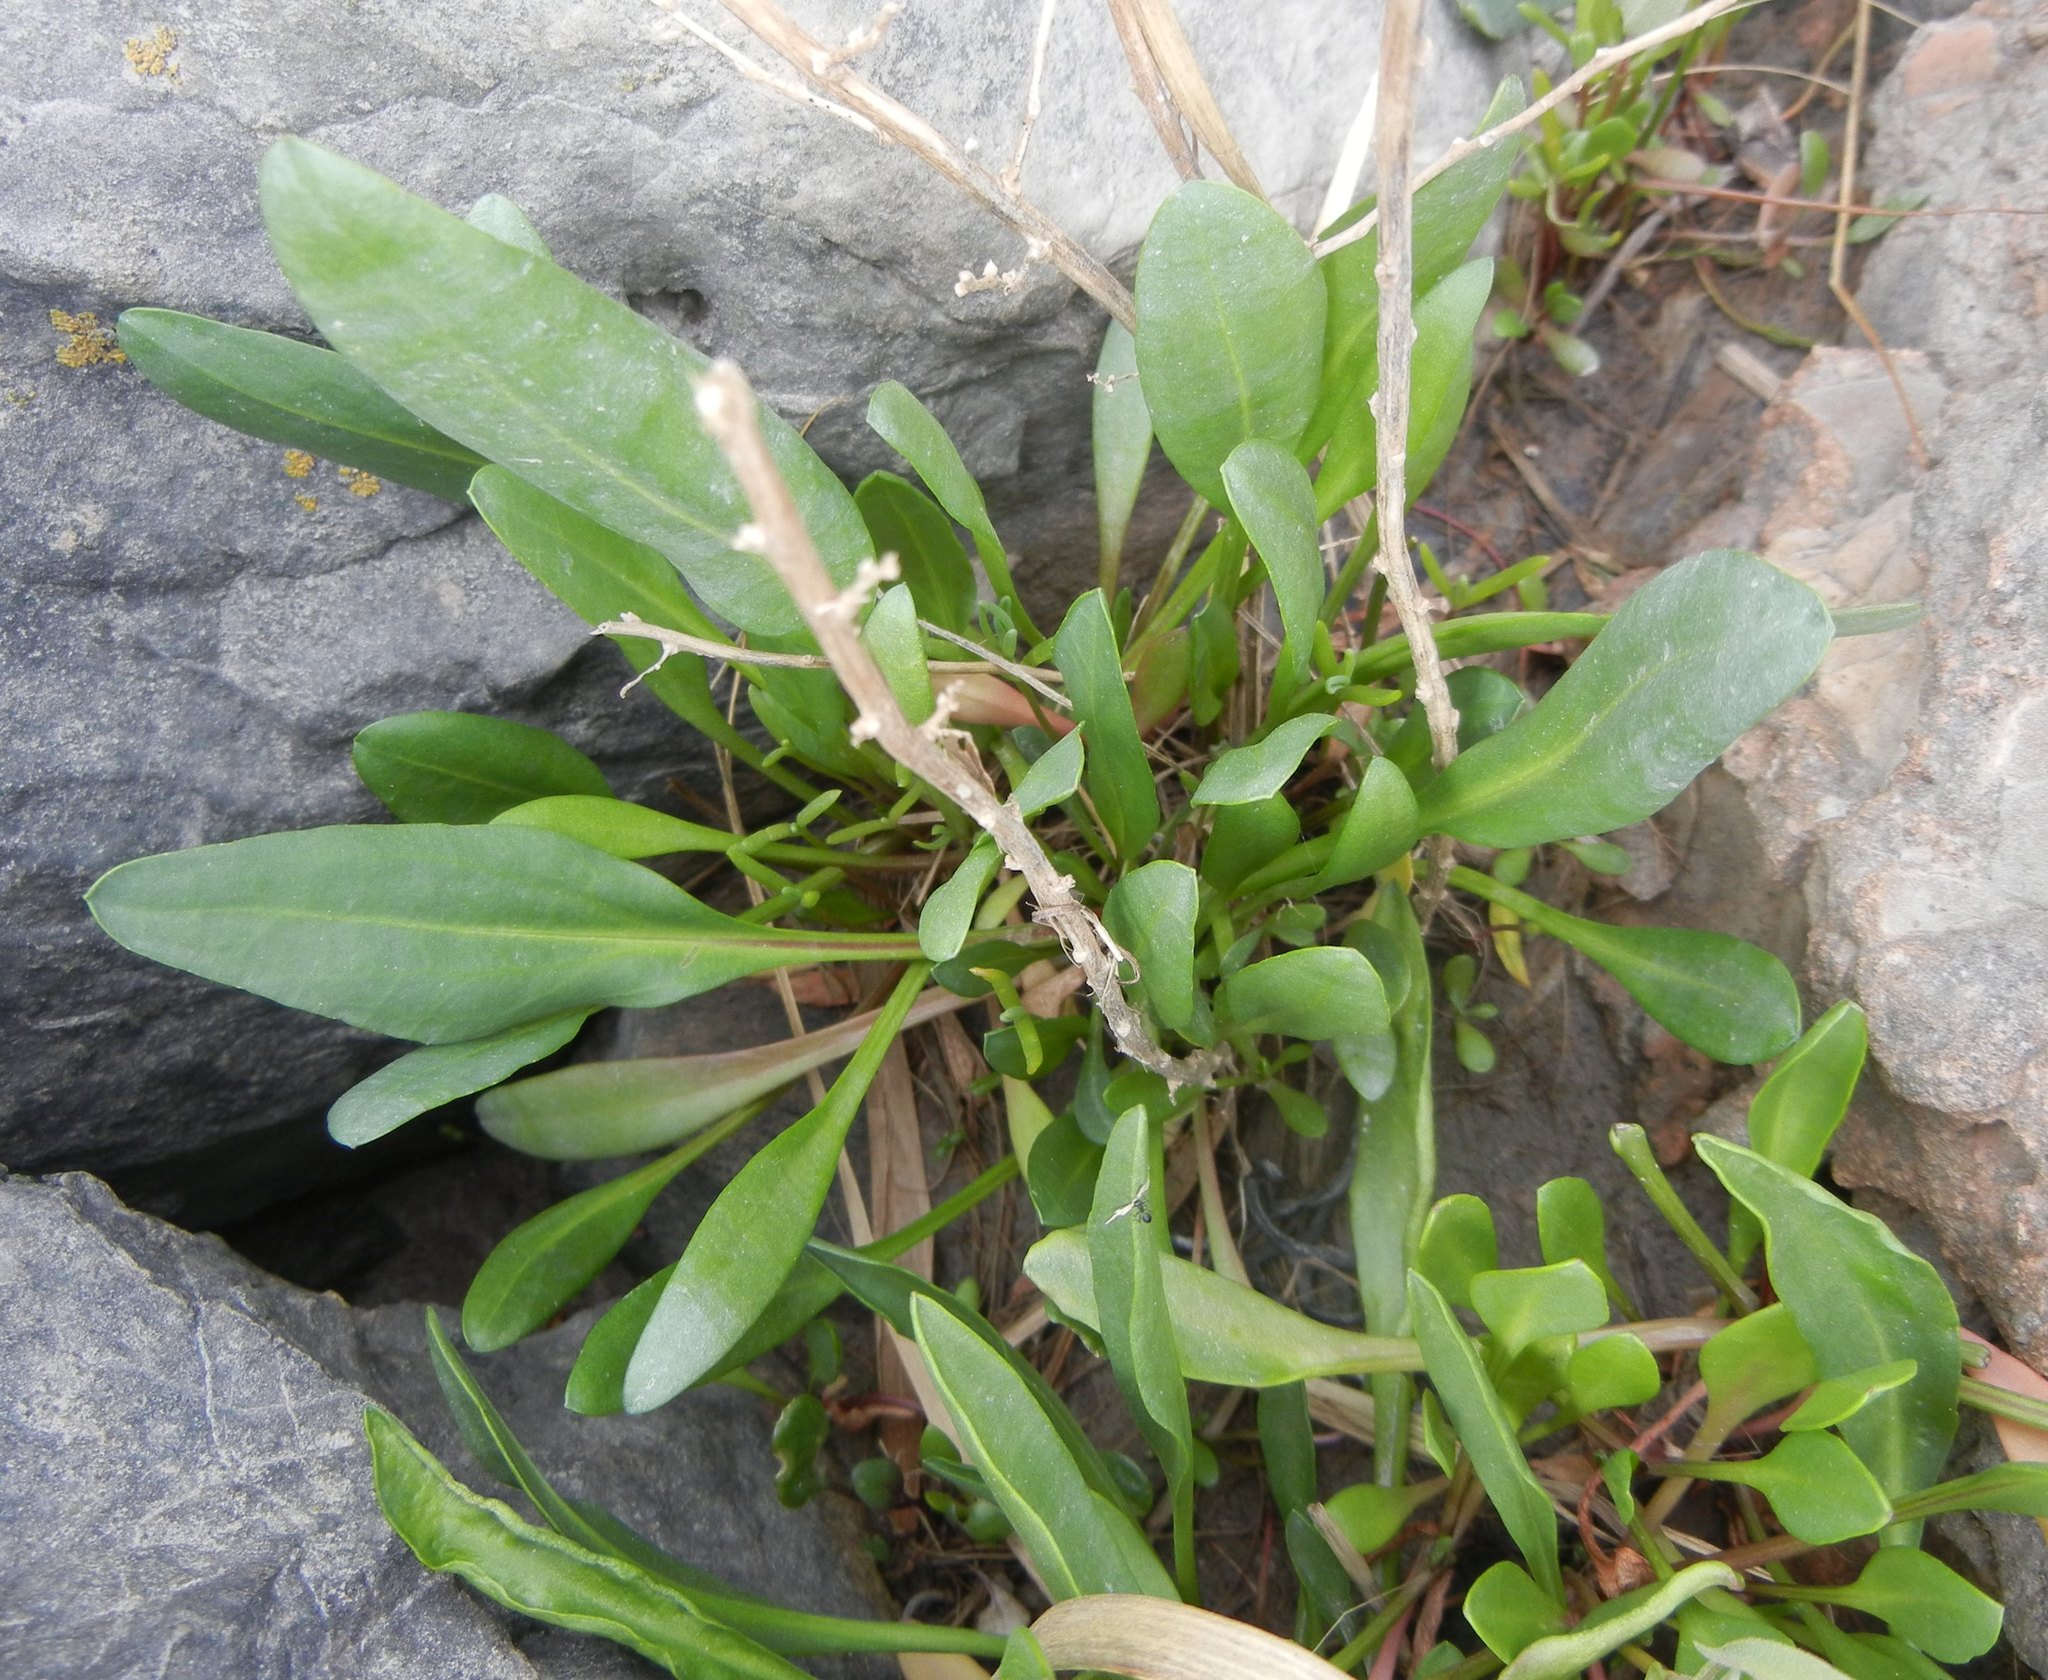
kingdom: Plantae
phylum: Tracheophyta
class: Magnoliopsida
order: Asterales
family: Asteraceae
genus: Tripolium
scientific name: Tripolium pannonicum
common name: Sea aster
